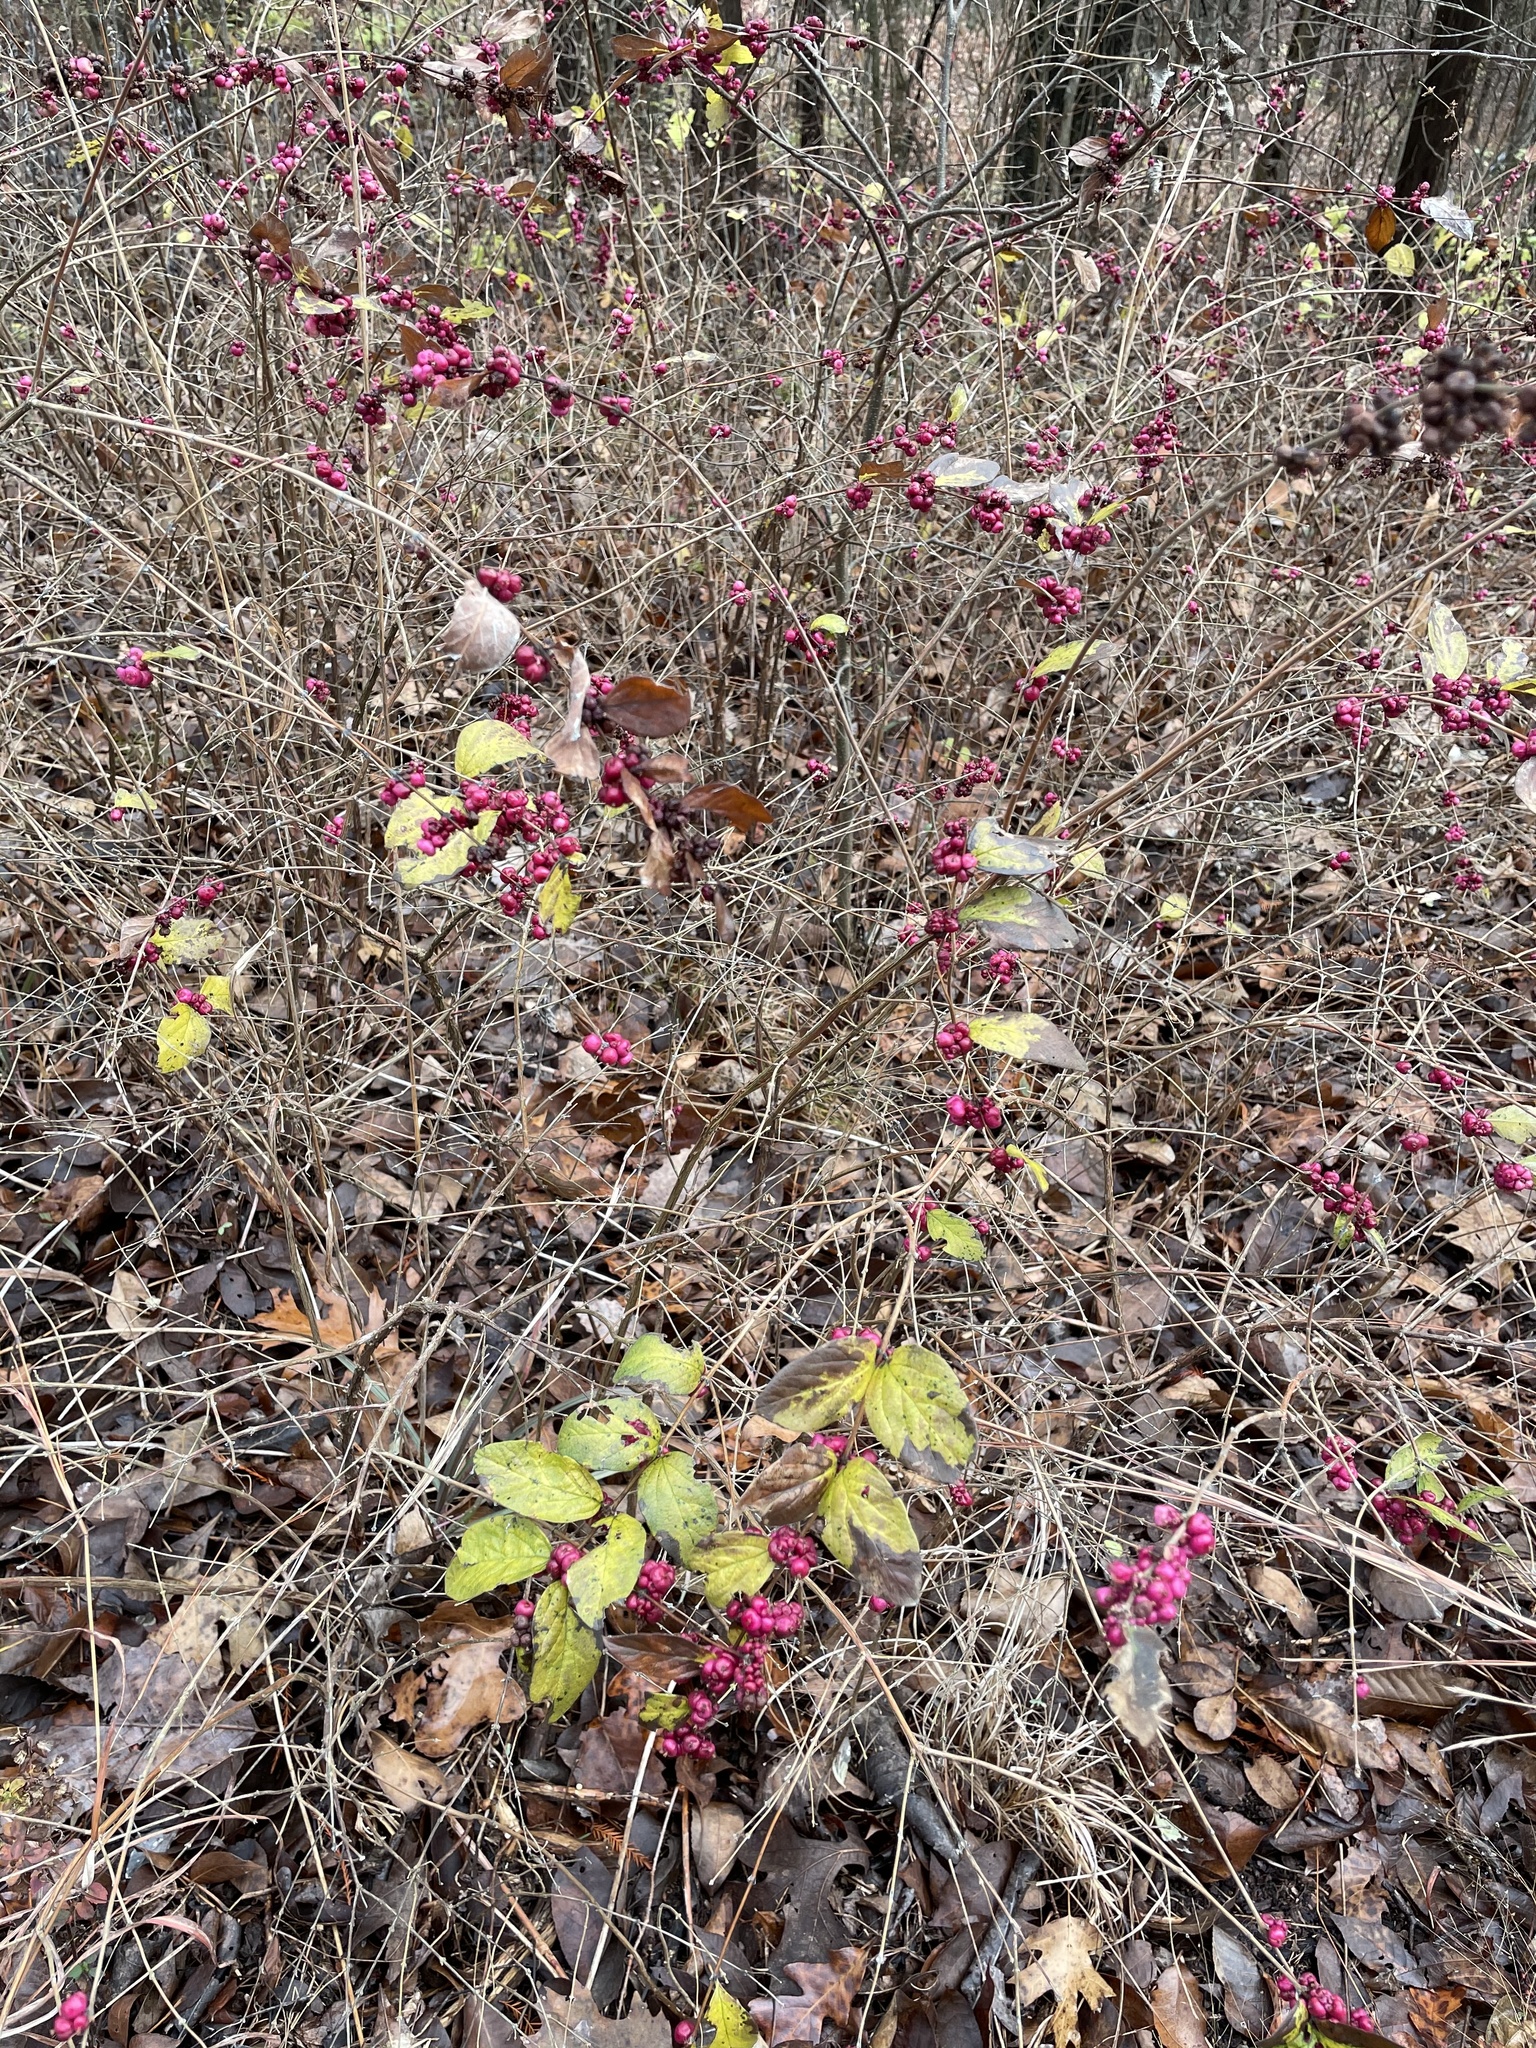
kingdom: Plantae
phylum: Tracheophyta
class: Magnoliopsida
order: Dipsacales
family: Caprifoliaceae
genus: Symphoricarpos
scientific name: Symphoricarpos orbiculatus
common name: Coralberry
